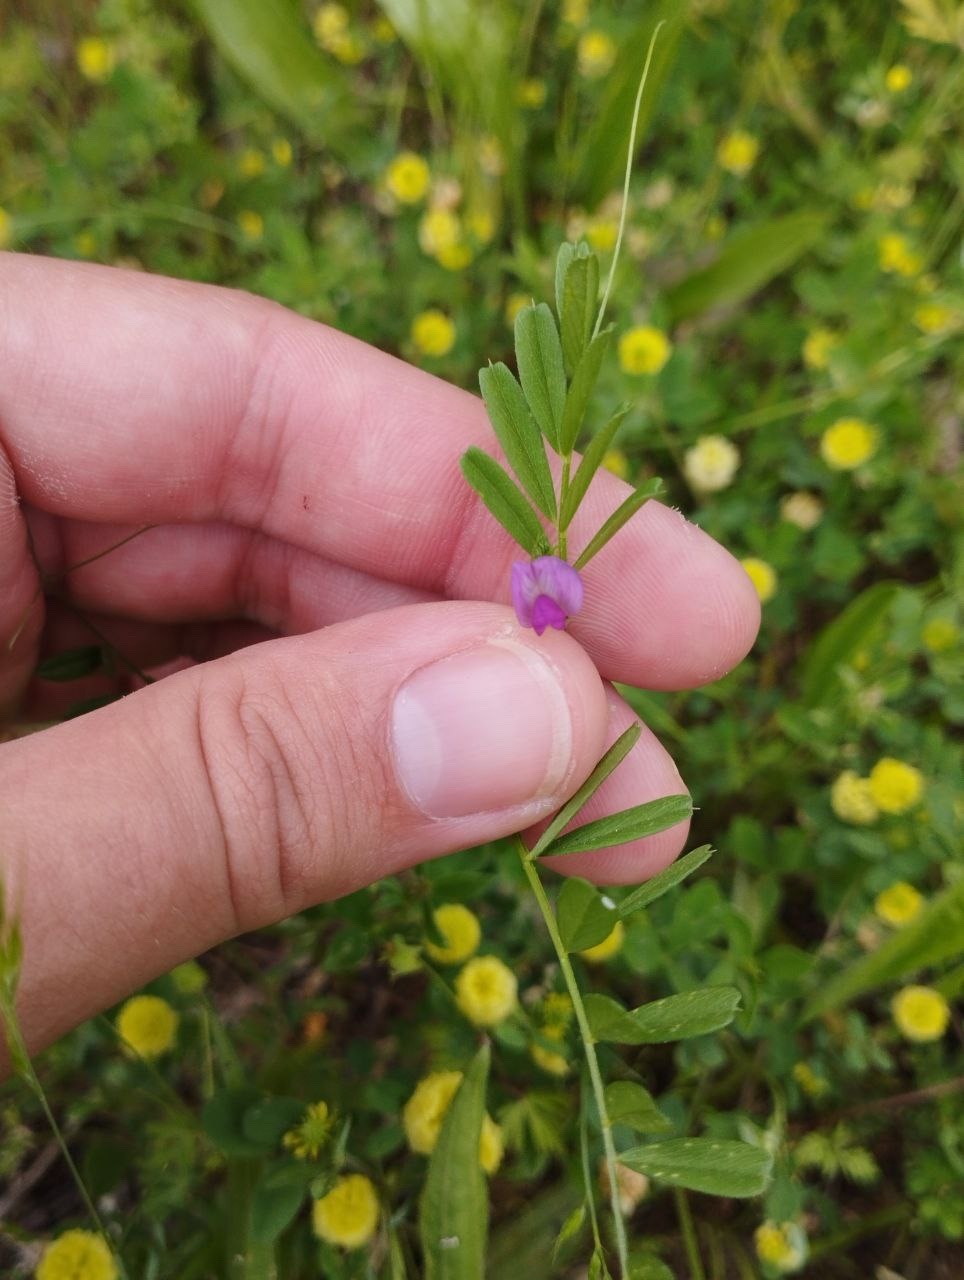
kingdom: Plantae
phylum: Tracheophyta
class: Magnoliopsida
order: Fabales
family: Fabaceae
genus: Vicia
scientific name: Vicia sativa
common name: Garden vetch
